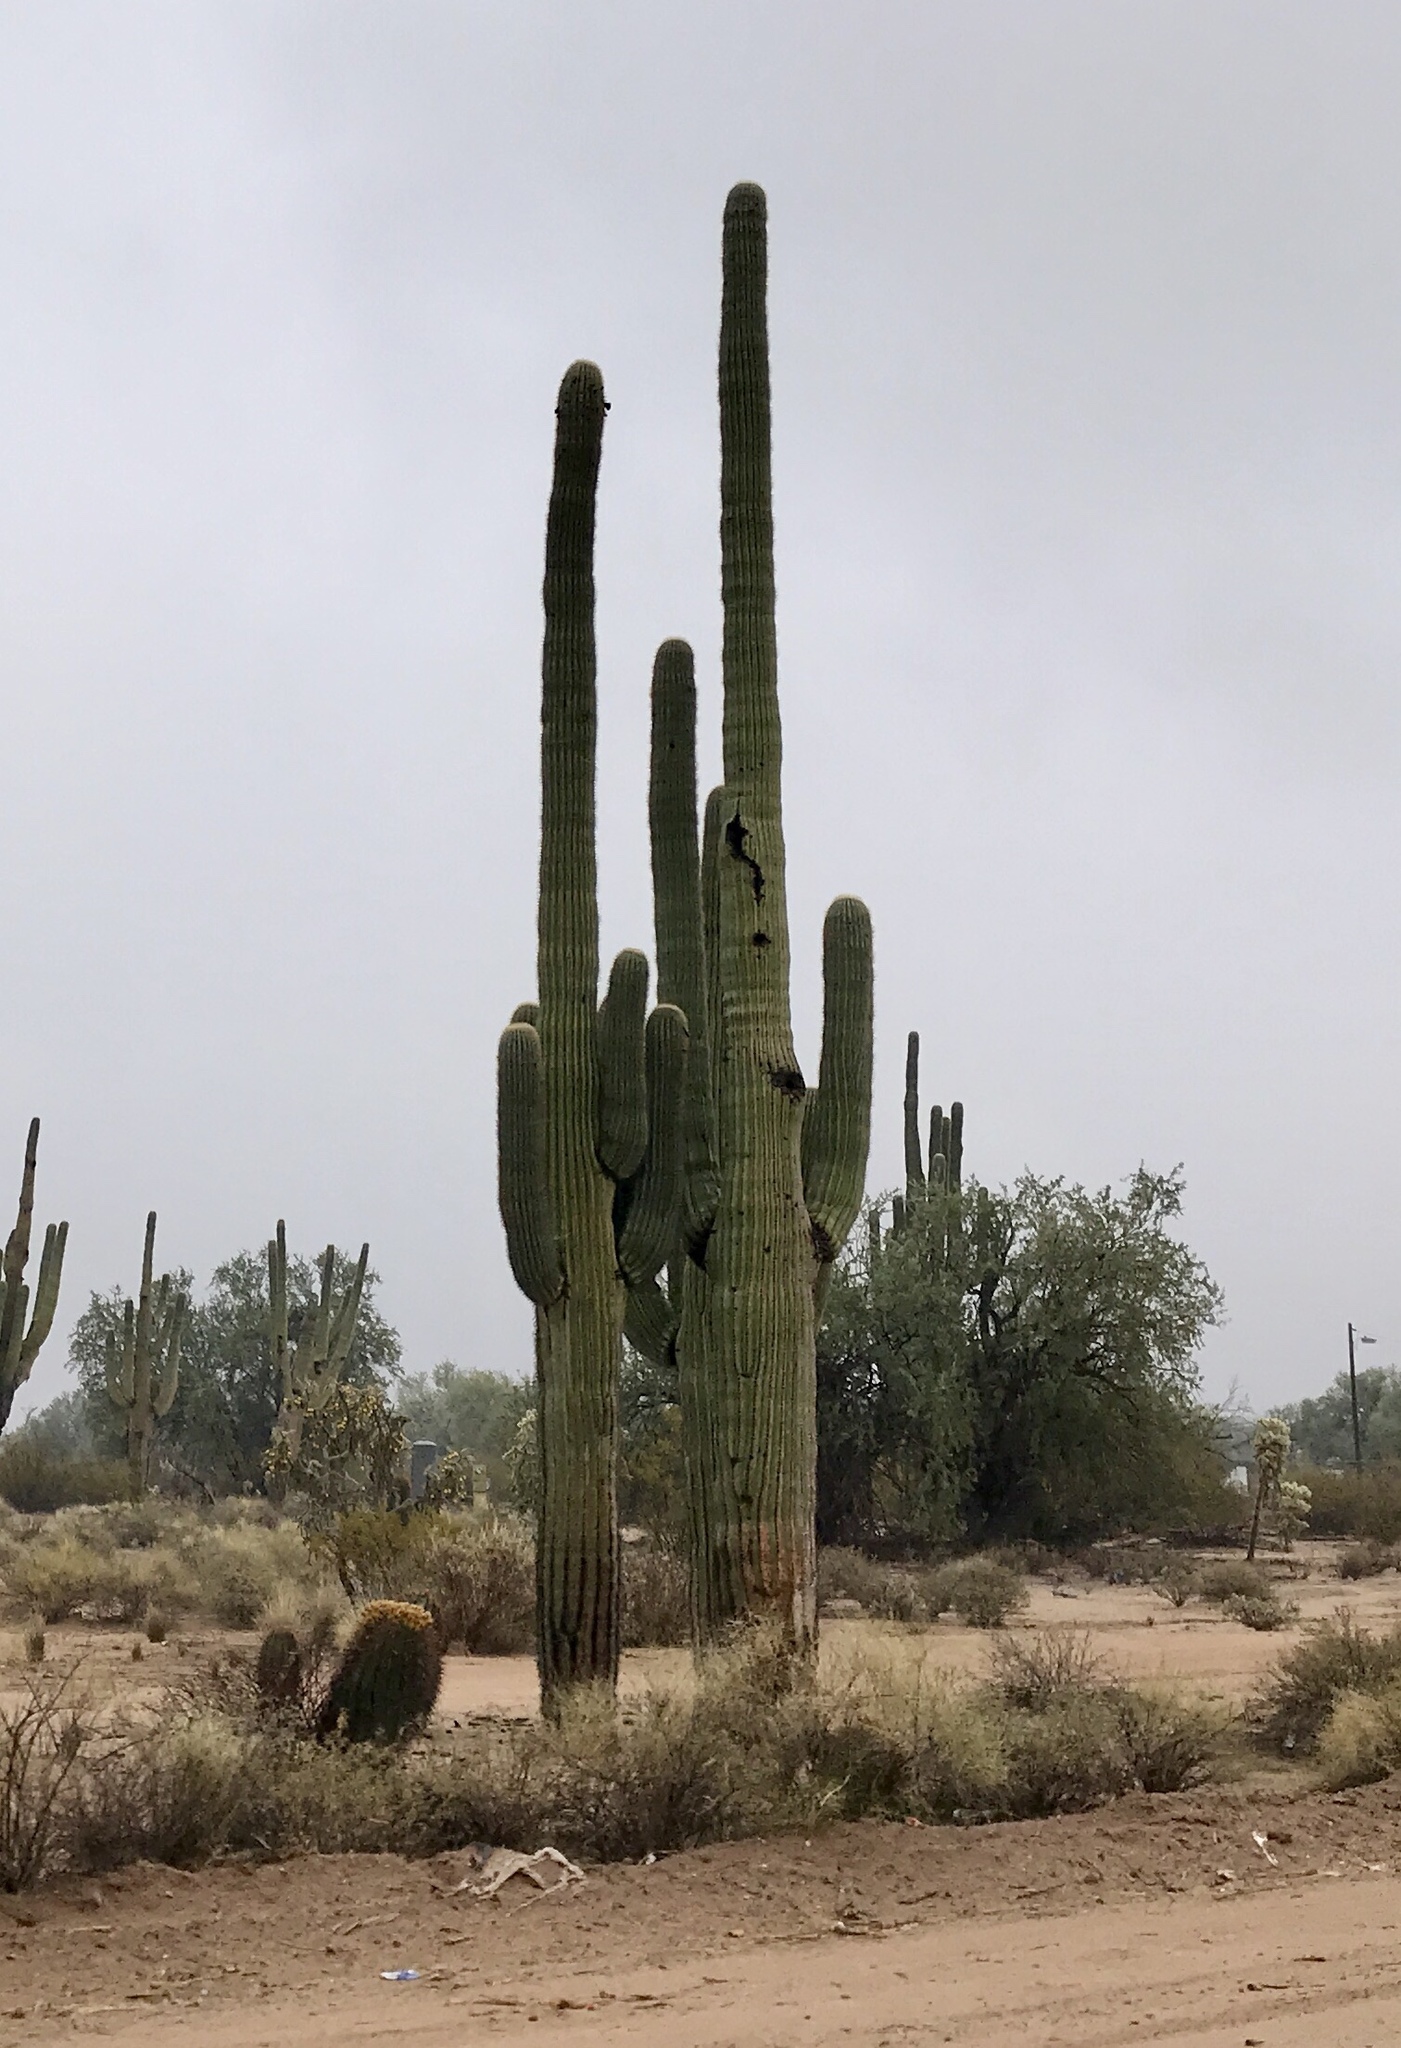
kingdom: Plantae
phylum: Tracheophyta
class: Magnoliopsida
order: Caryophyllales
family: Cactaceae
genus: Carnegiea
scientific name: Carnegiea gigantea
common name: Saguaro
